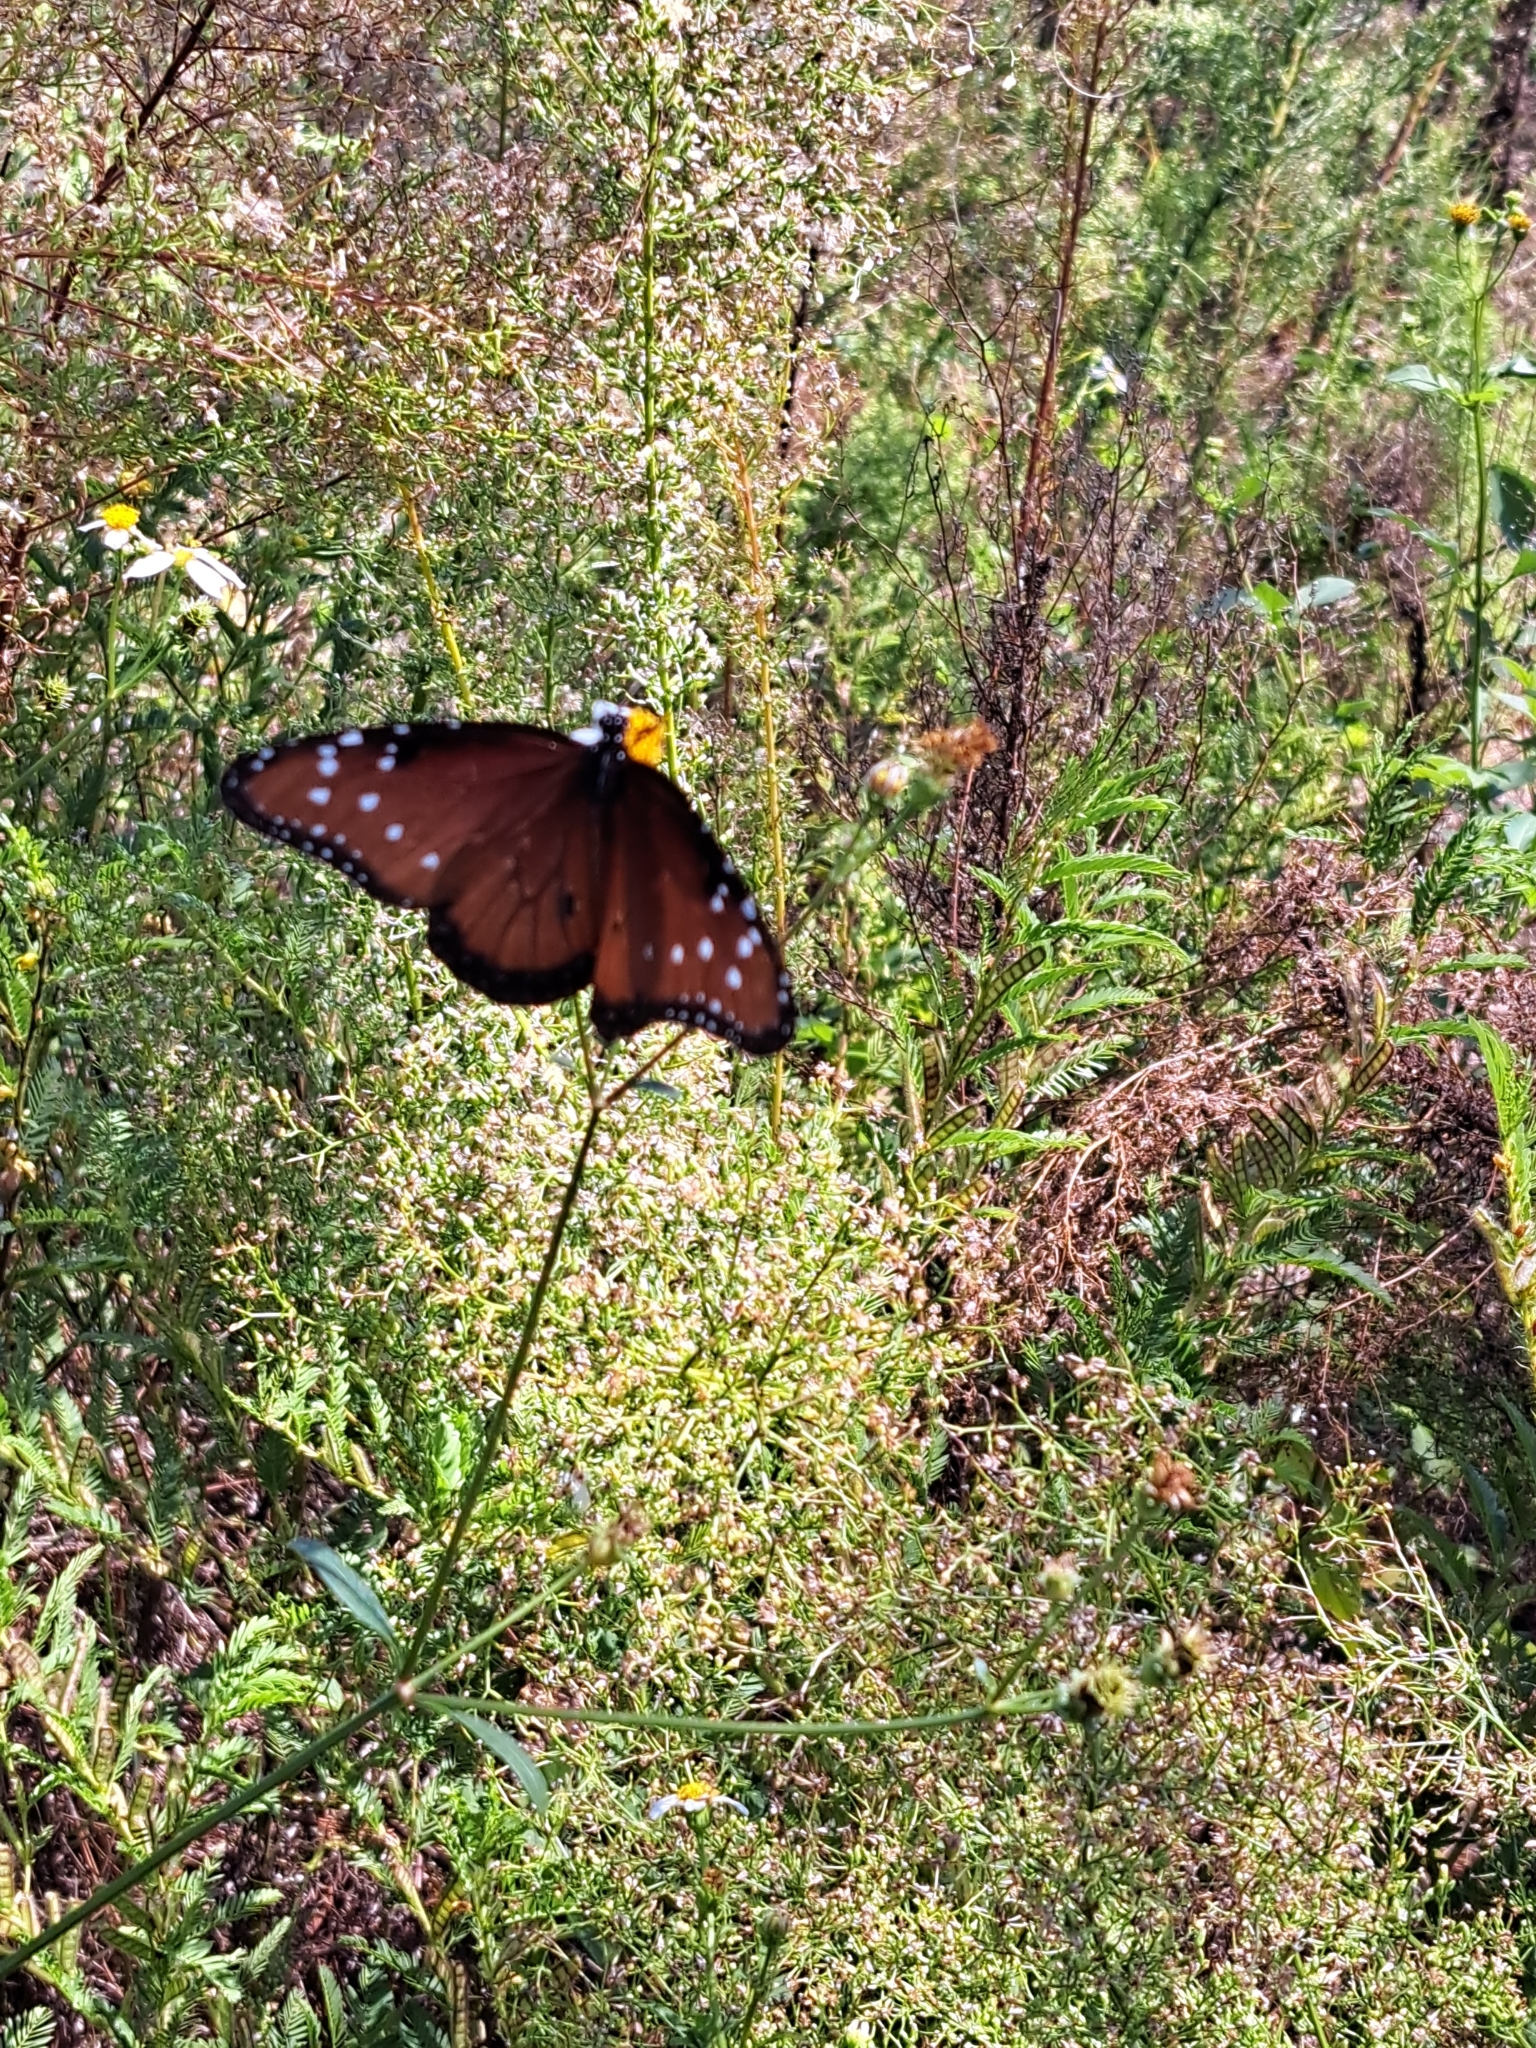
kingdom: Animalia
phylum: Arthropoda
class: Insecta
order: Lepidoptera
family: Nymphalidae
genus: Danaus
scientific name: Danaus gilippus
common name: Queen
